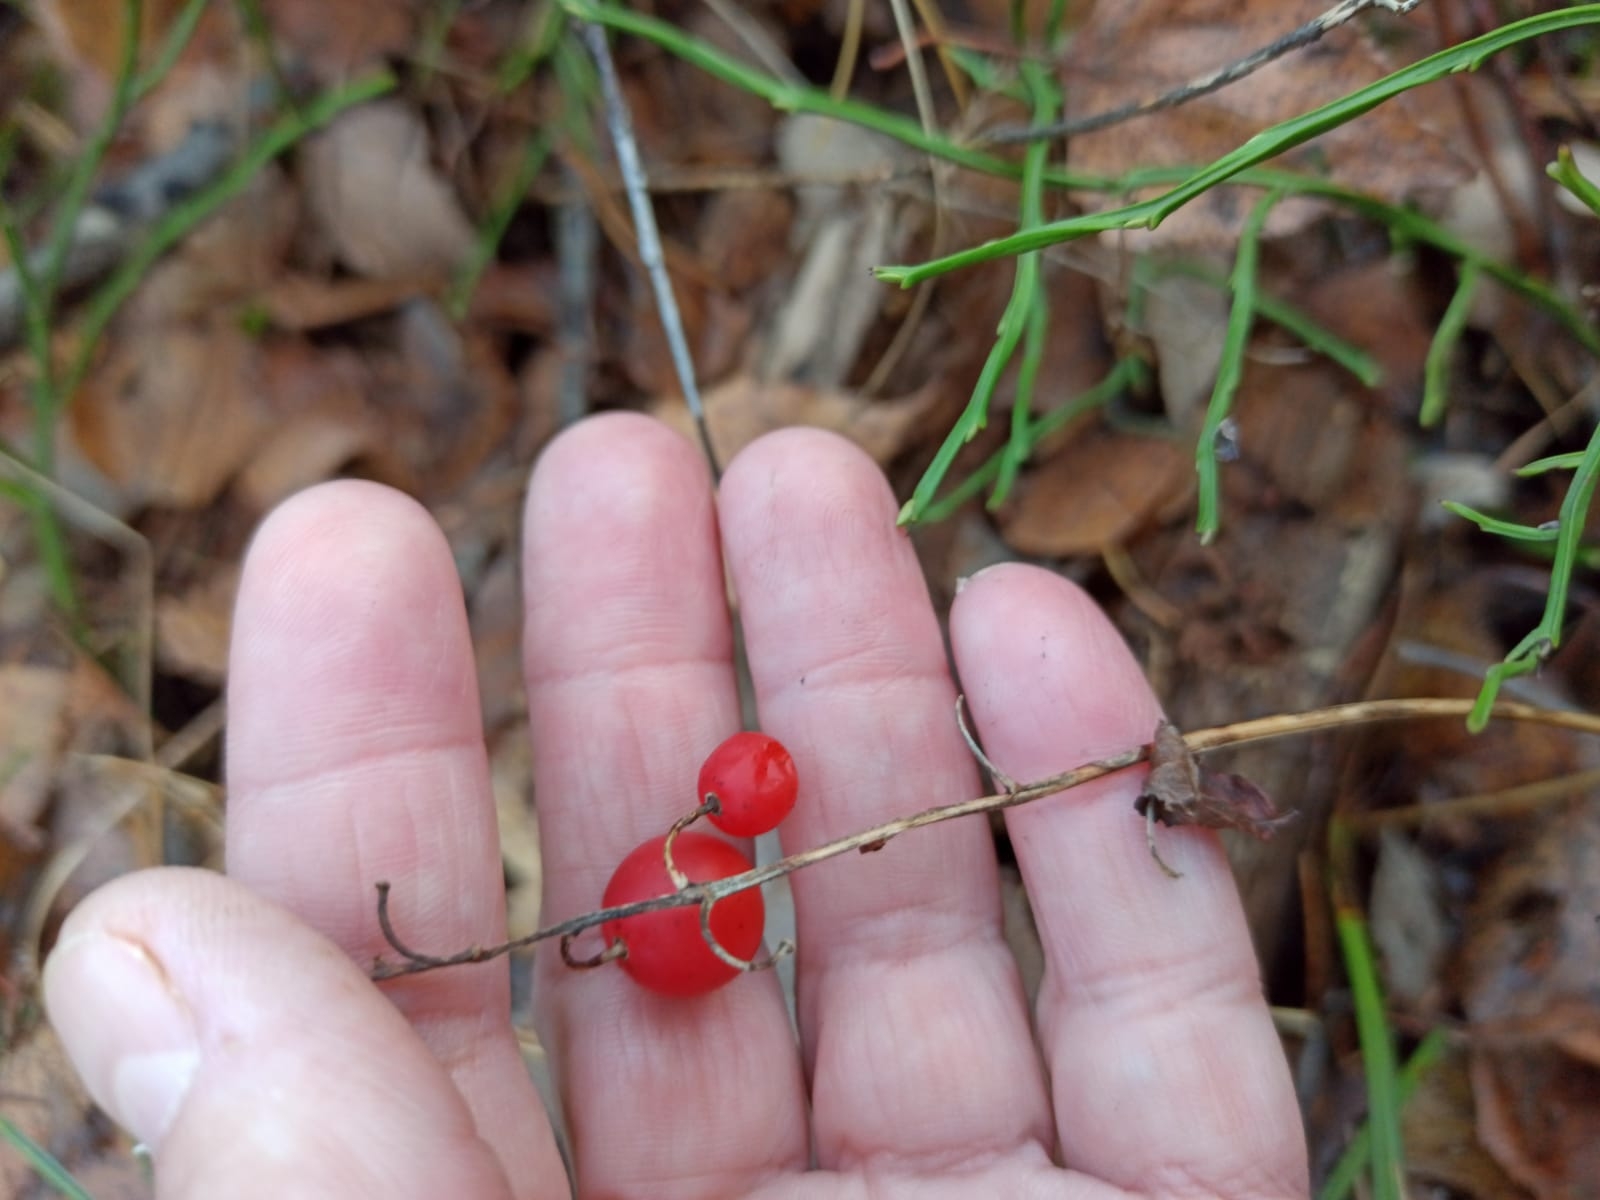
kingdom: Plantae
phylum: Tracheophyta
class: Liliopsida
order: Asparagales
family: Asparagaceae
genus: Convallaria
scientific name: Convallaria majalis
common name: Lily-of-the-valley
